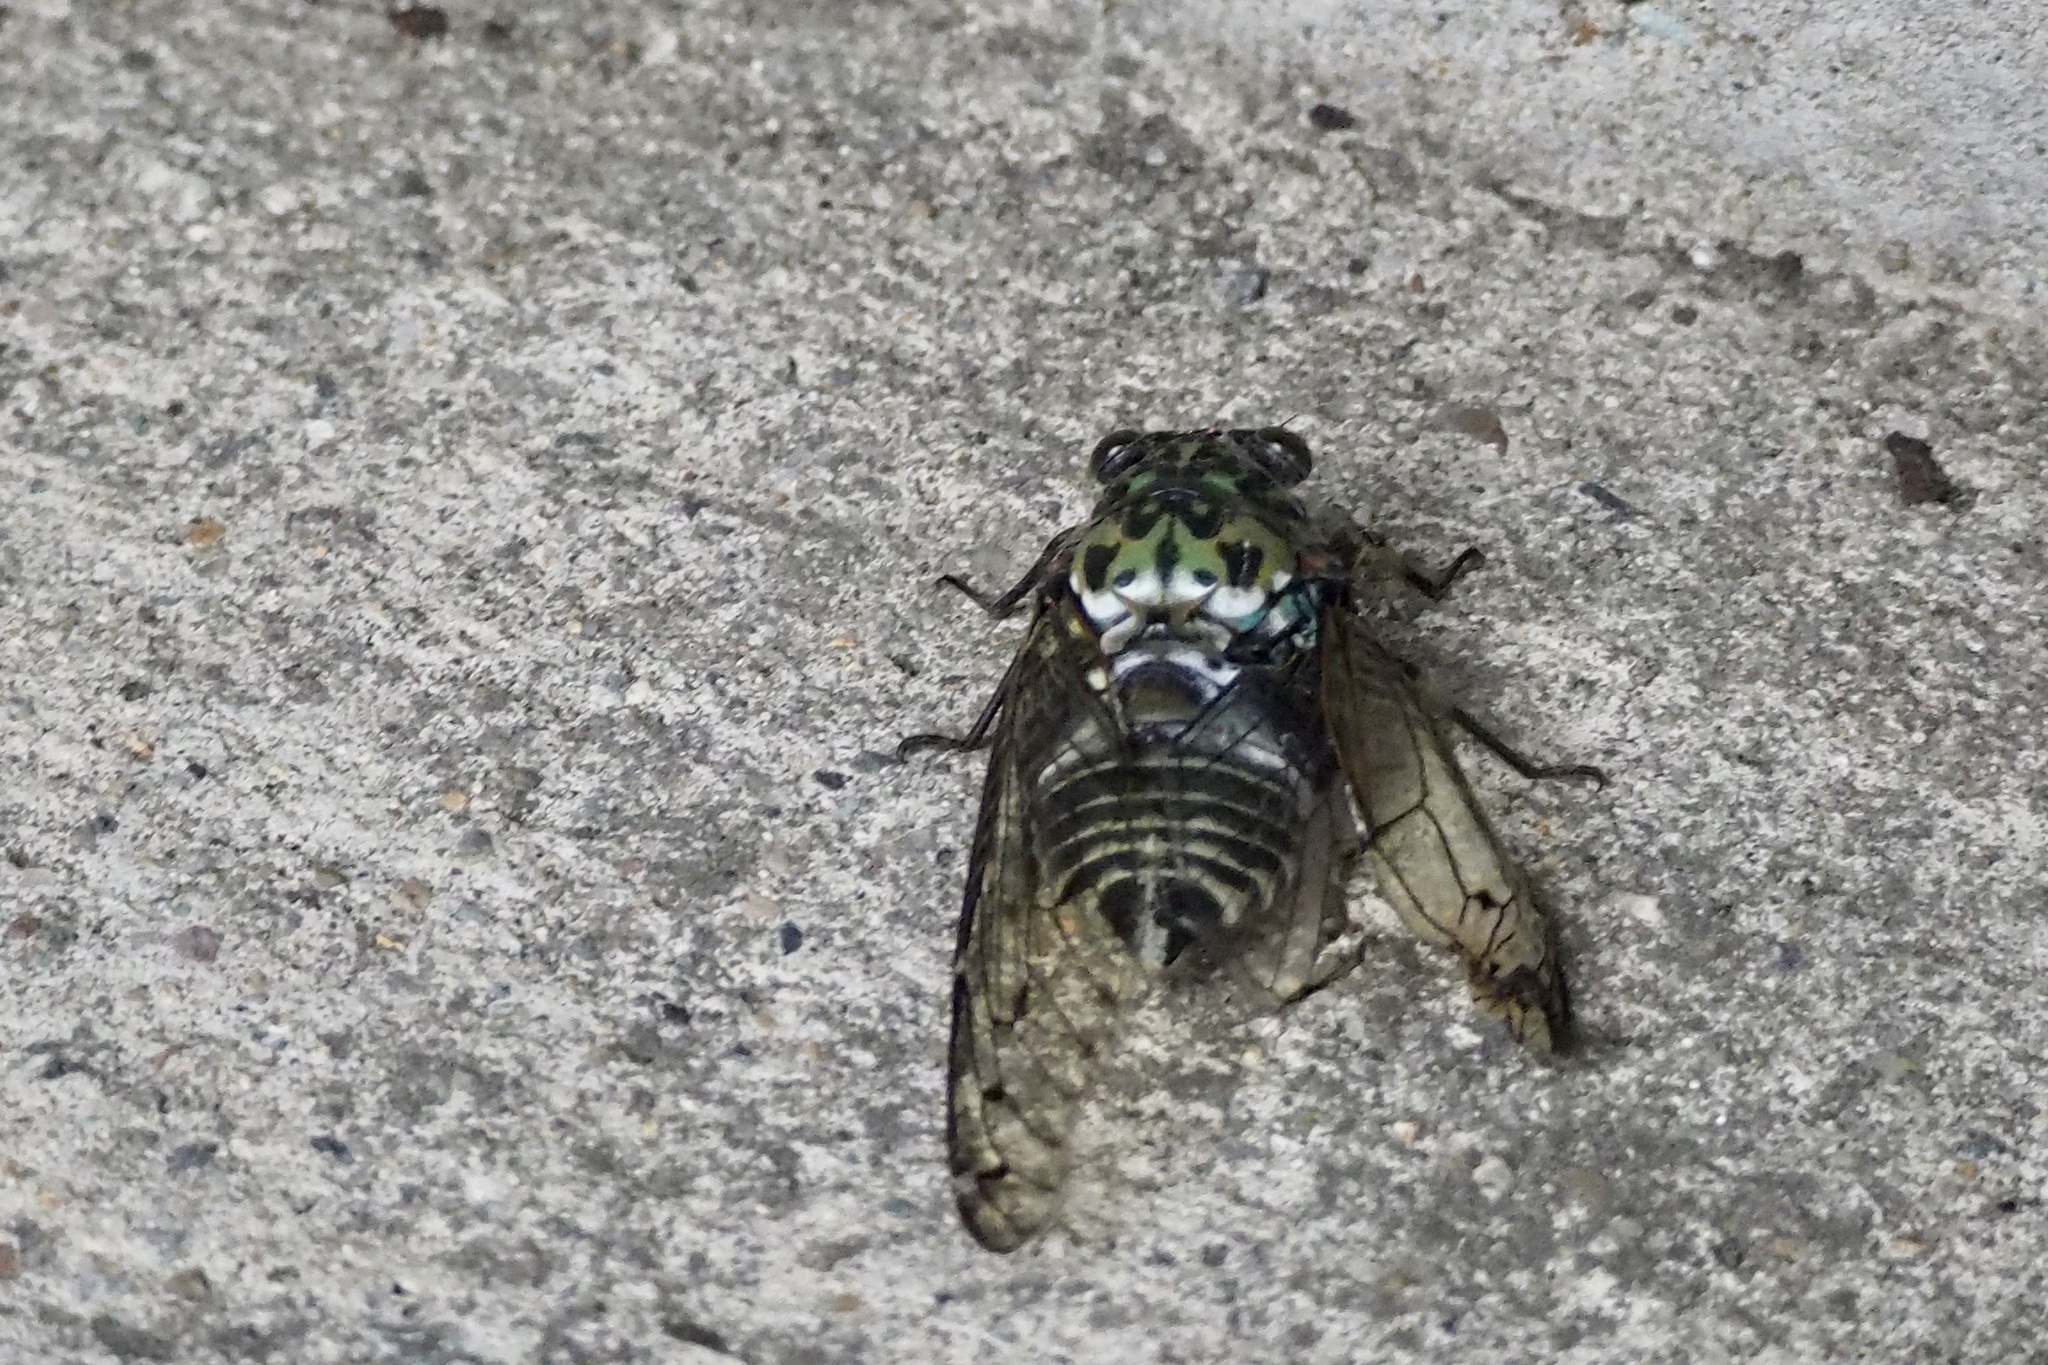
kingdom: Animalia
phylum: Arthropoda
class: Insecta
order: Hemiptera
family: Cicadidae
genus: Hyalessa
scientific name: Hyalessa maculaticollis
